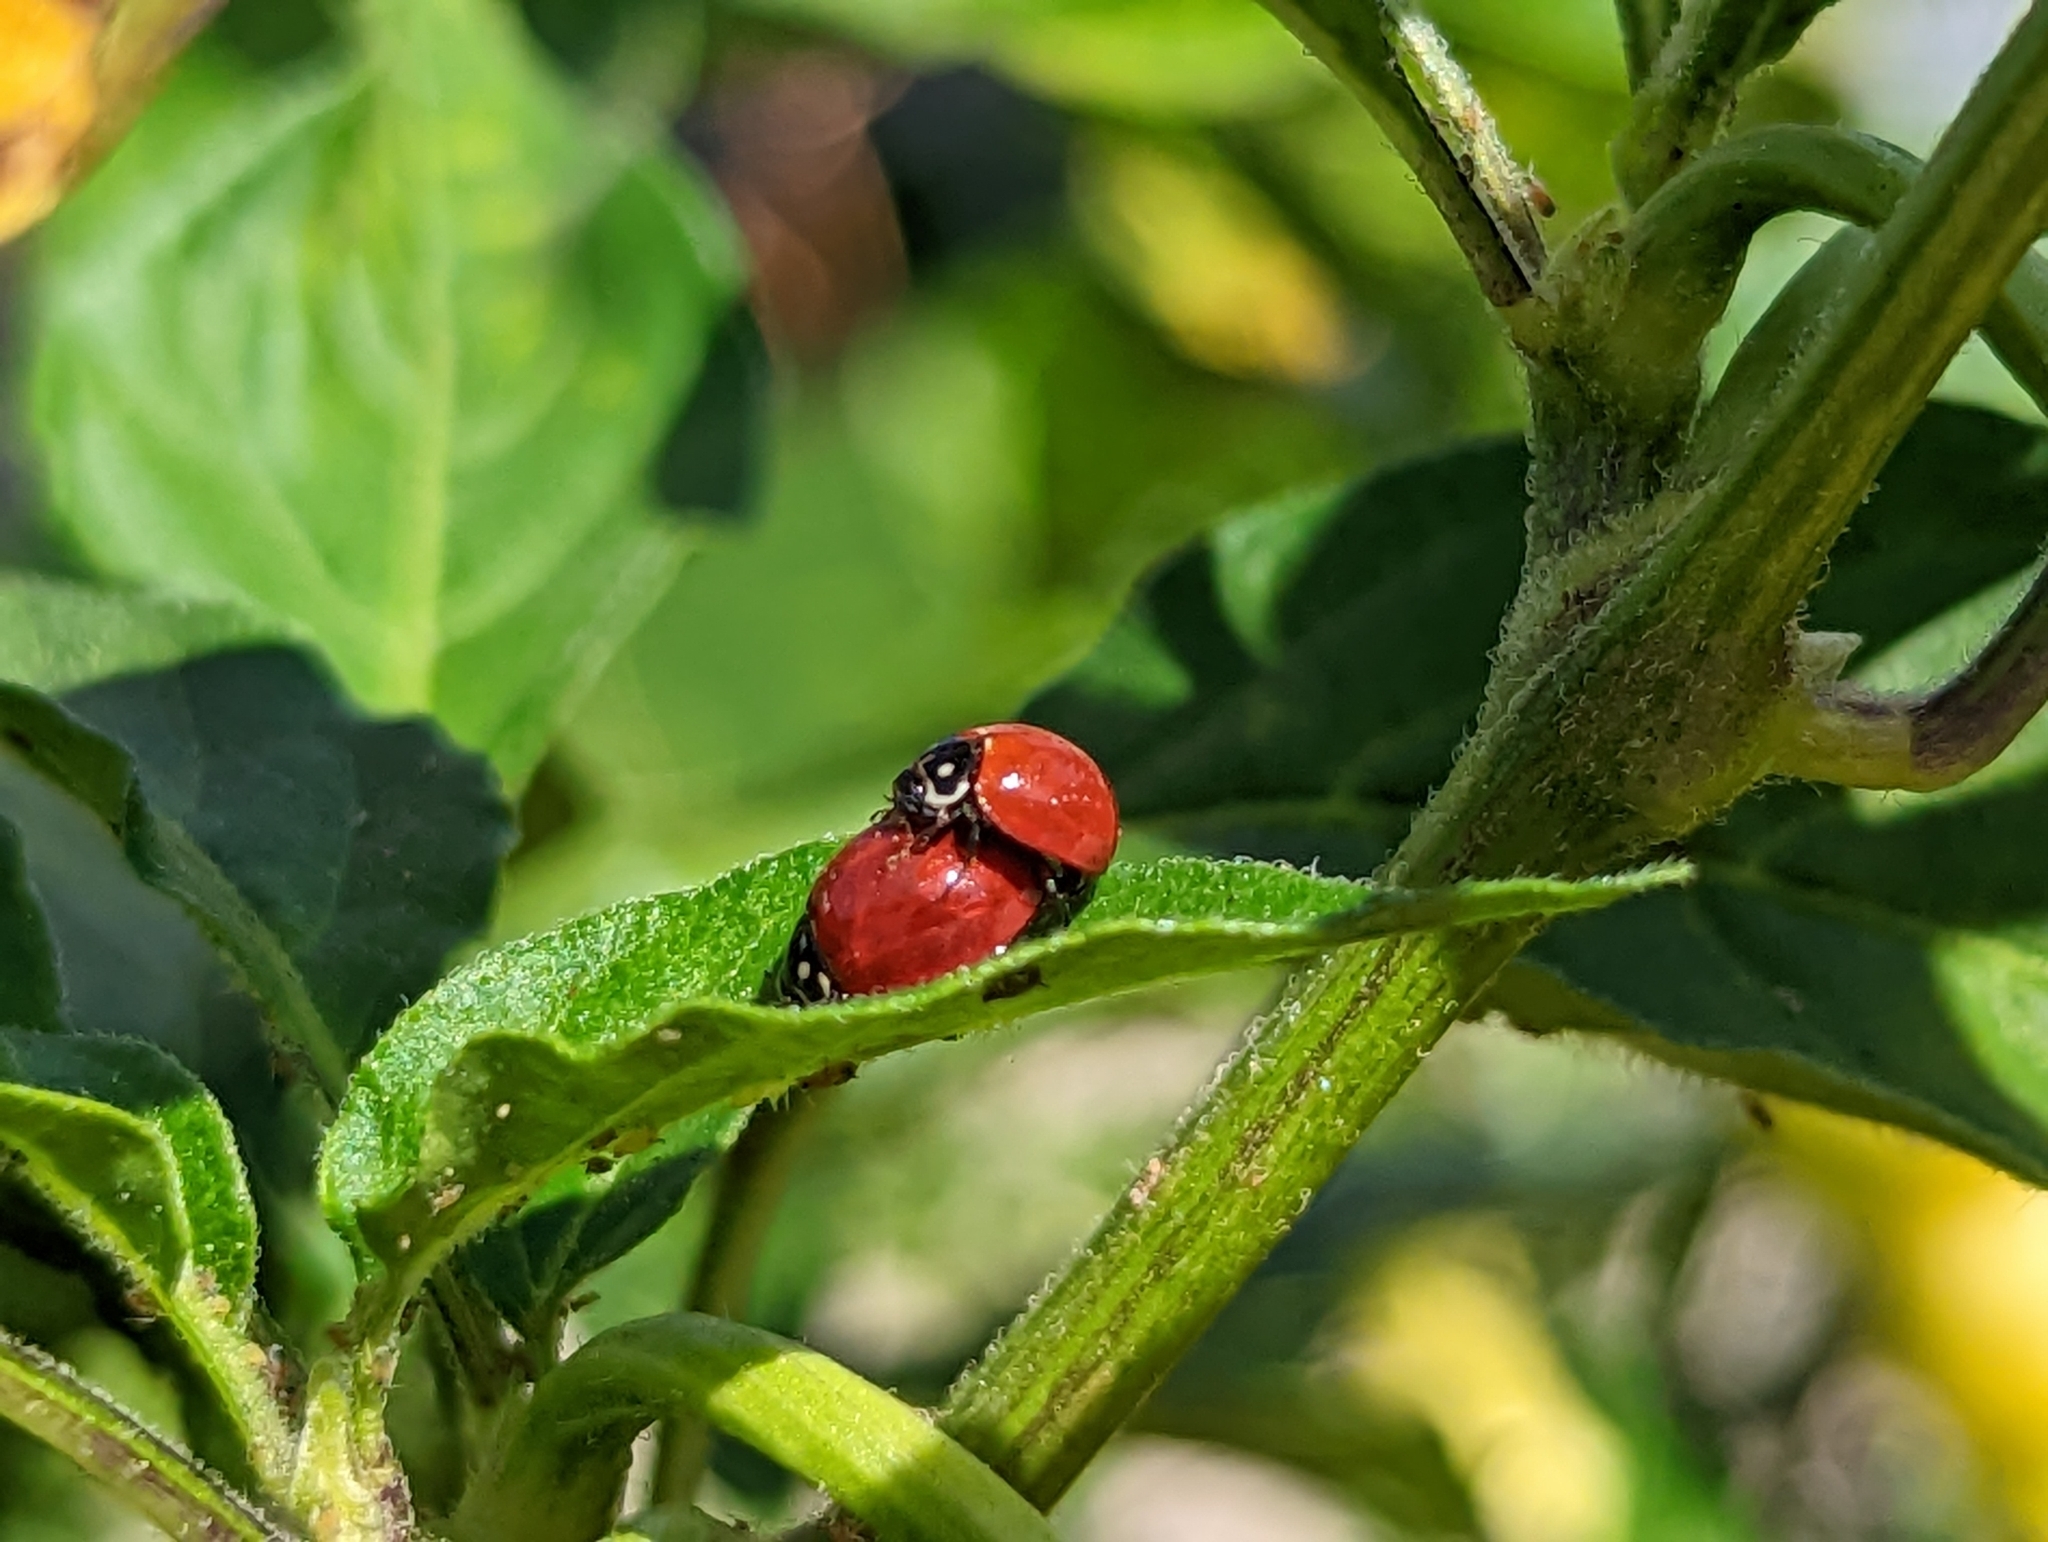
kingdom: Animalia
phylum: Arthropoda
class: Insecta
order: Coleoptera
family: Coccinellidae
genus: Cycloneda
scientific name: Cycloneda sanguinea
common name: Ladybird beetle
